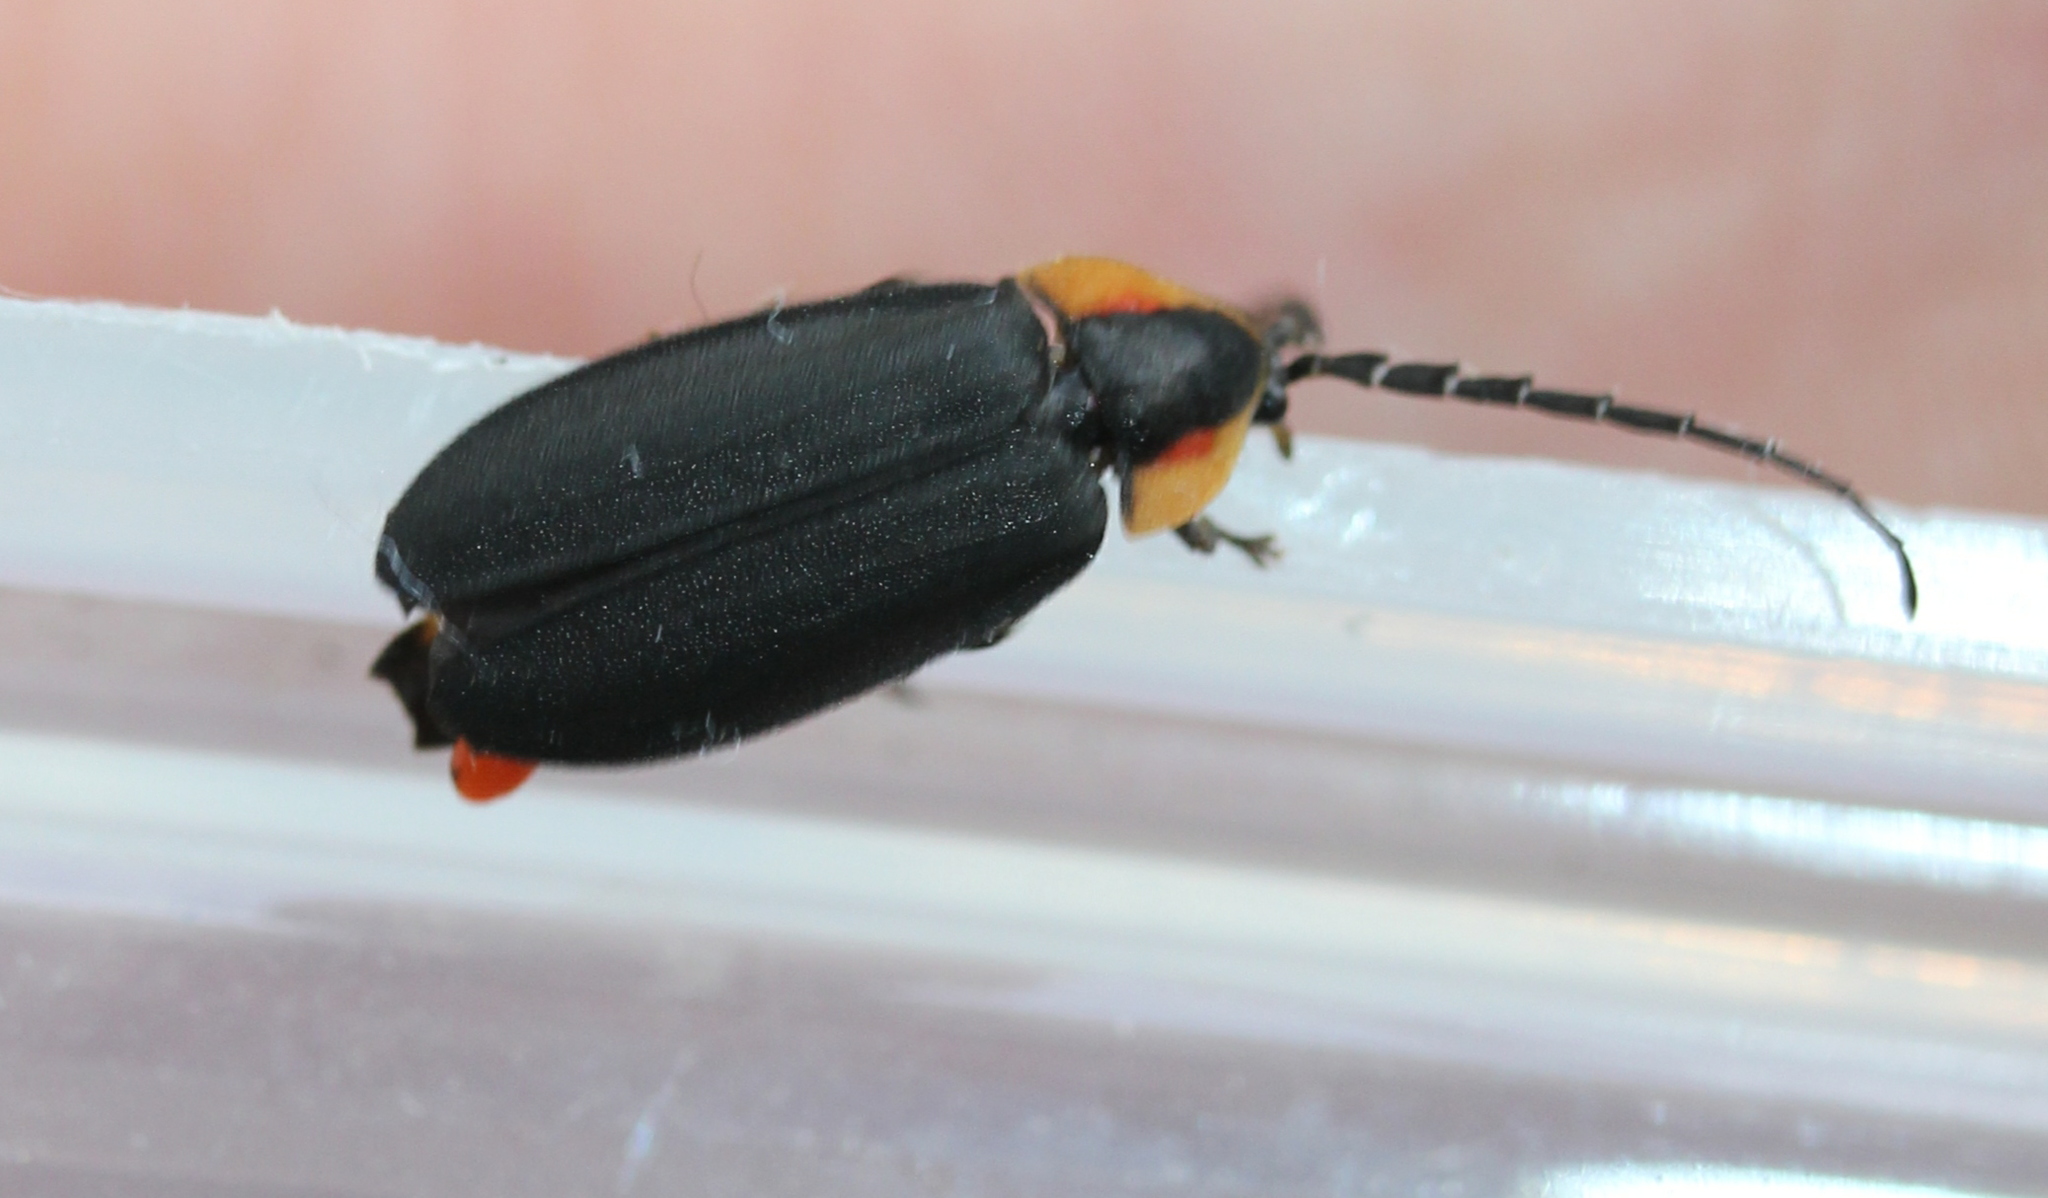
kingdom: Animalia
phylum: Arthropoda
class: Insecta
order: Coleoptera
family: Lampyridae
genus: Lucidota
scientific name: Lucidota atra
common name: Black firefly
